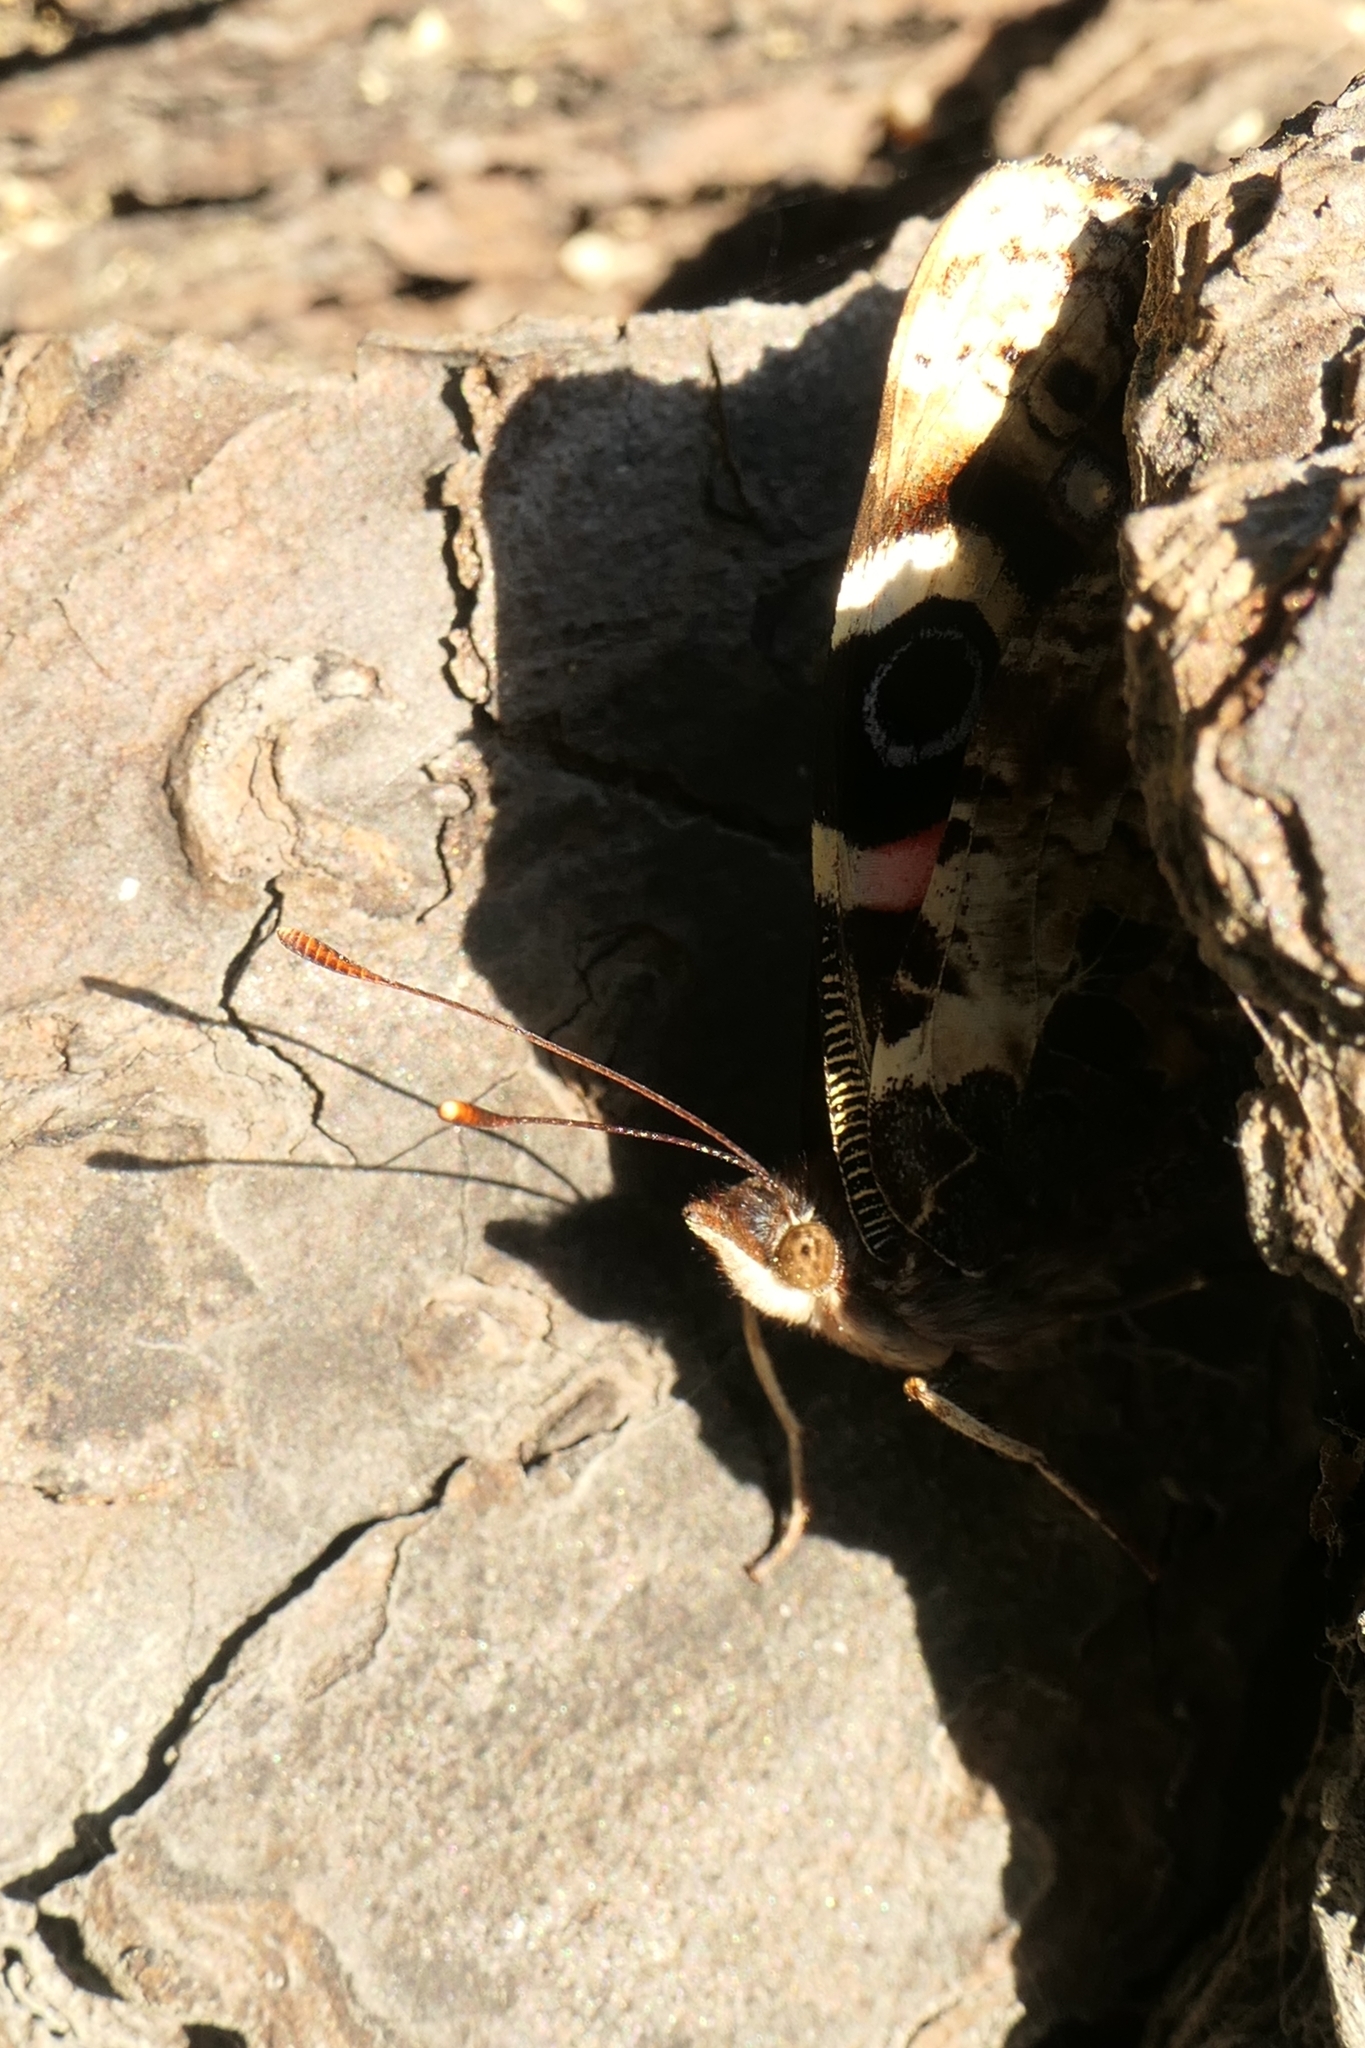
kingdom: Animalia
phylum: Arthropoda
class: Insecta
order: Lepidoptera
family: Nymphalidae
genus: Vanessa
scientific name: Vanessa gonerilla
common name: New zealand red admiral
